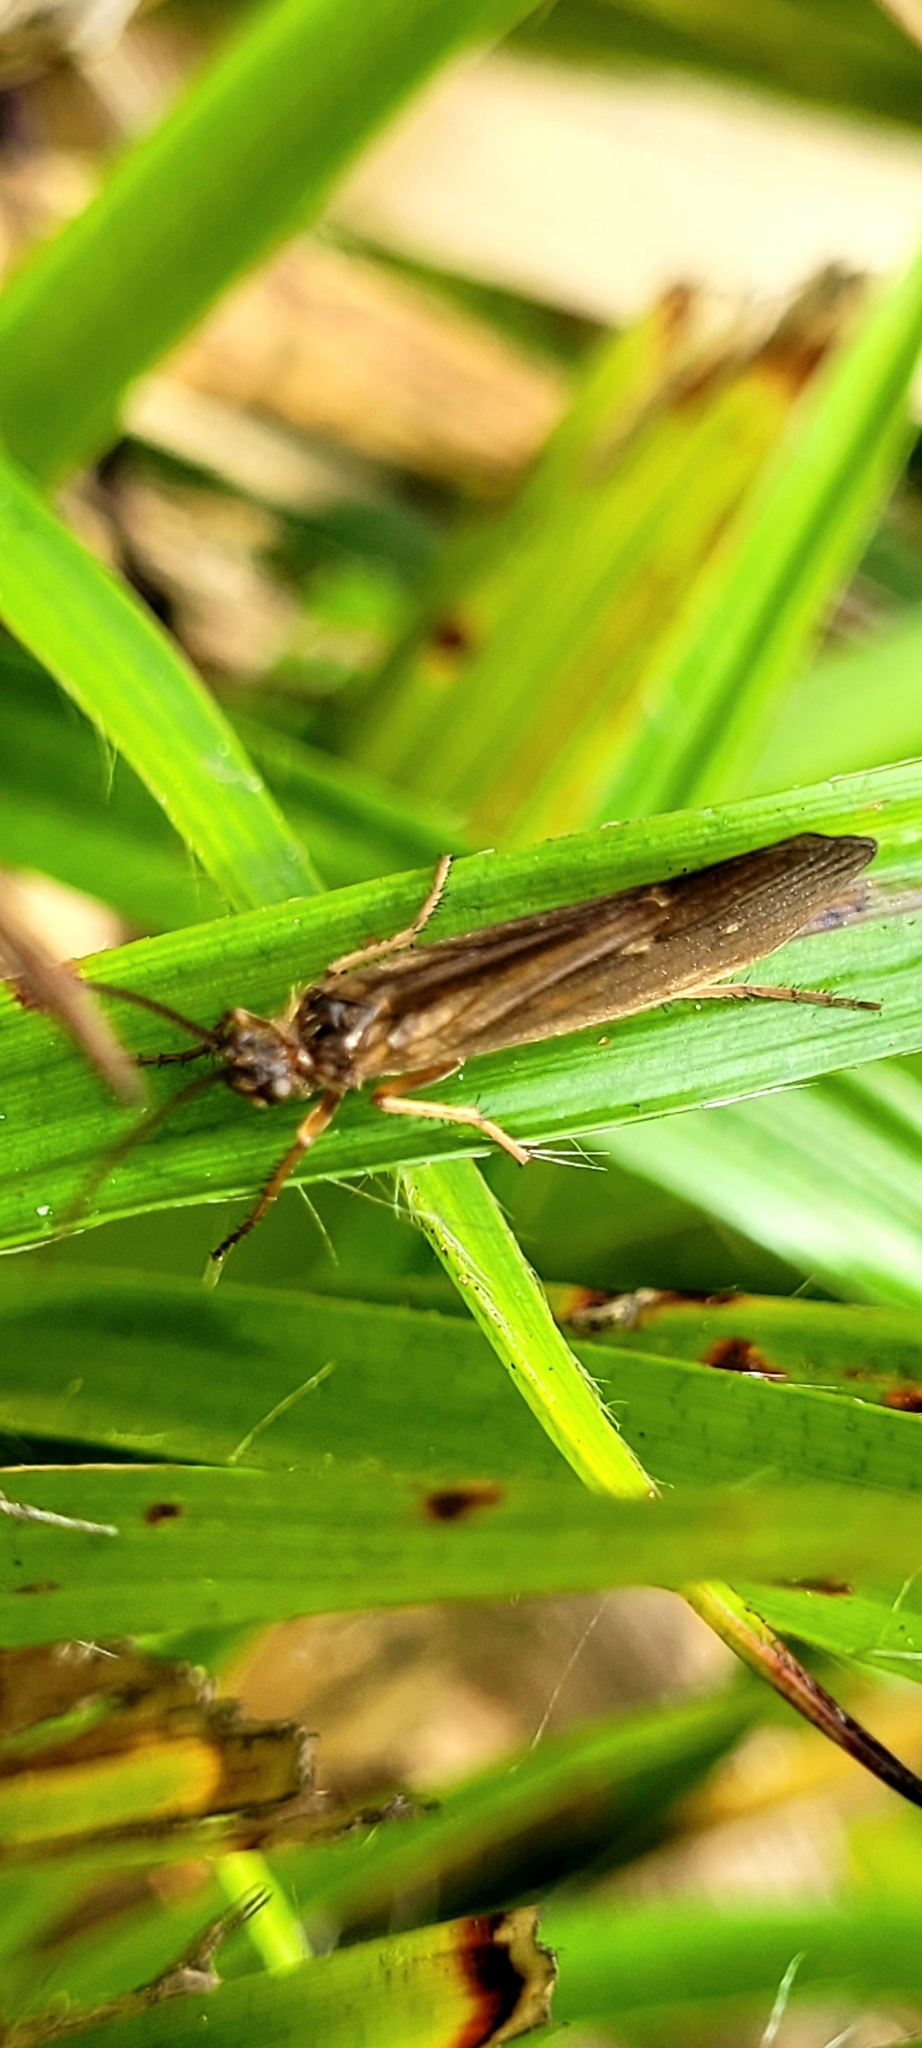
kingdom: Animalia
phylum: Arthropoda
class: Insecta
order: Trichoptera
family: Limnephilidae
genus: Anabolia
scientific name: Anabolia nervosa
